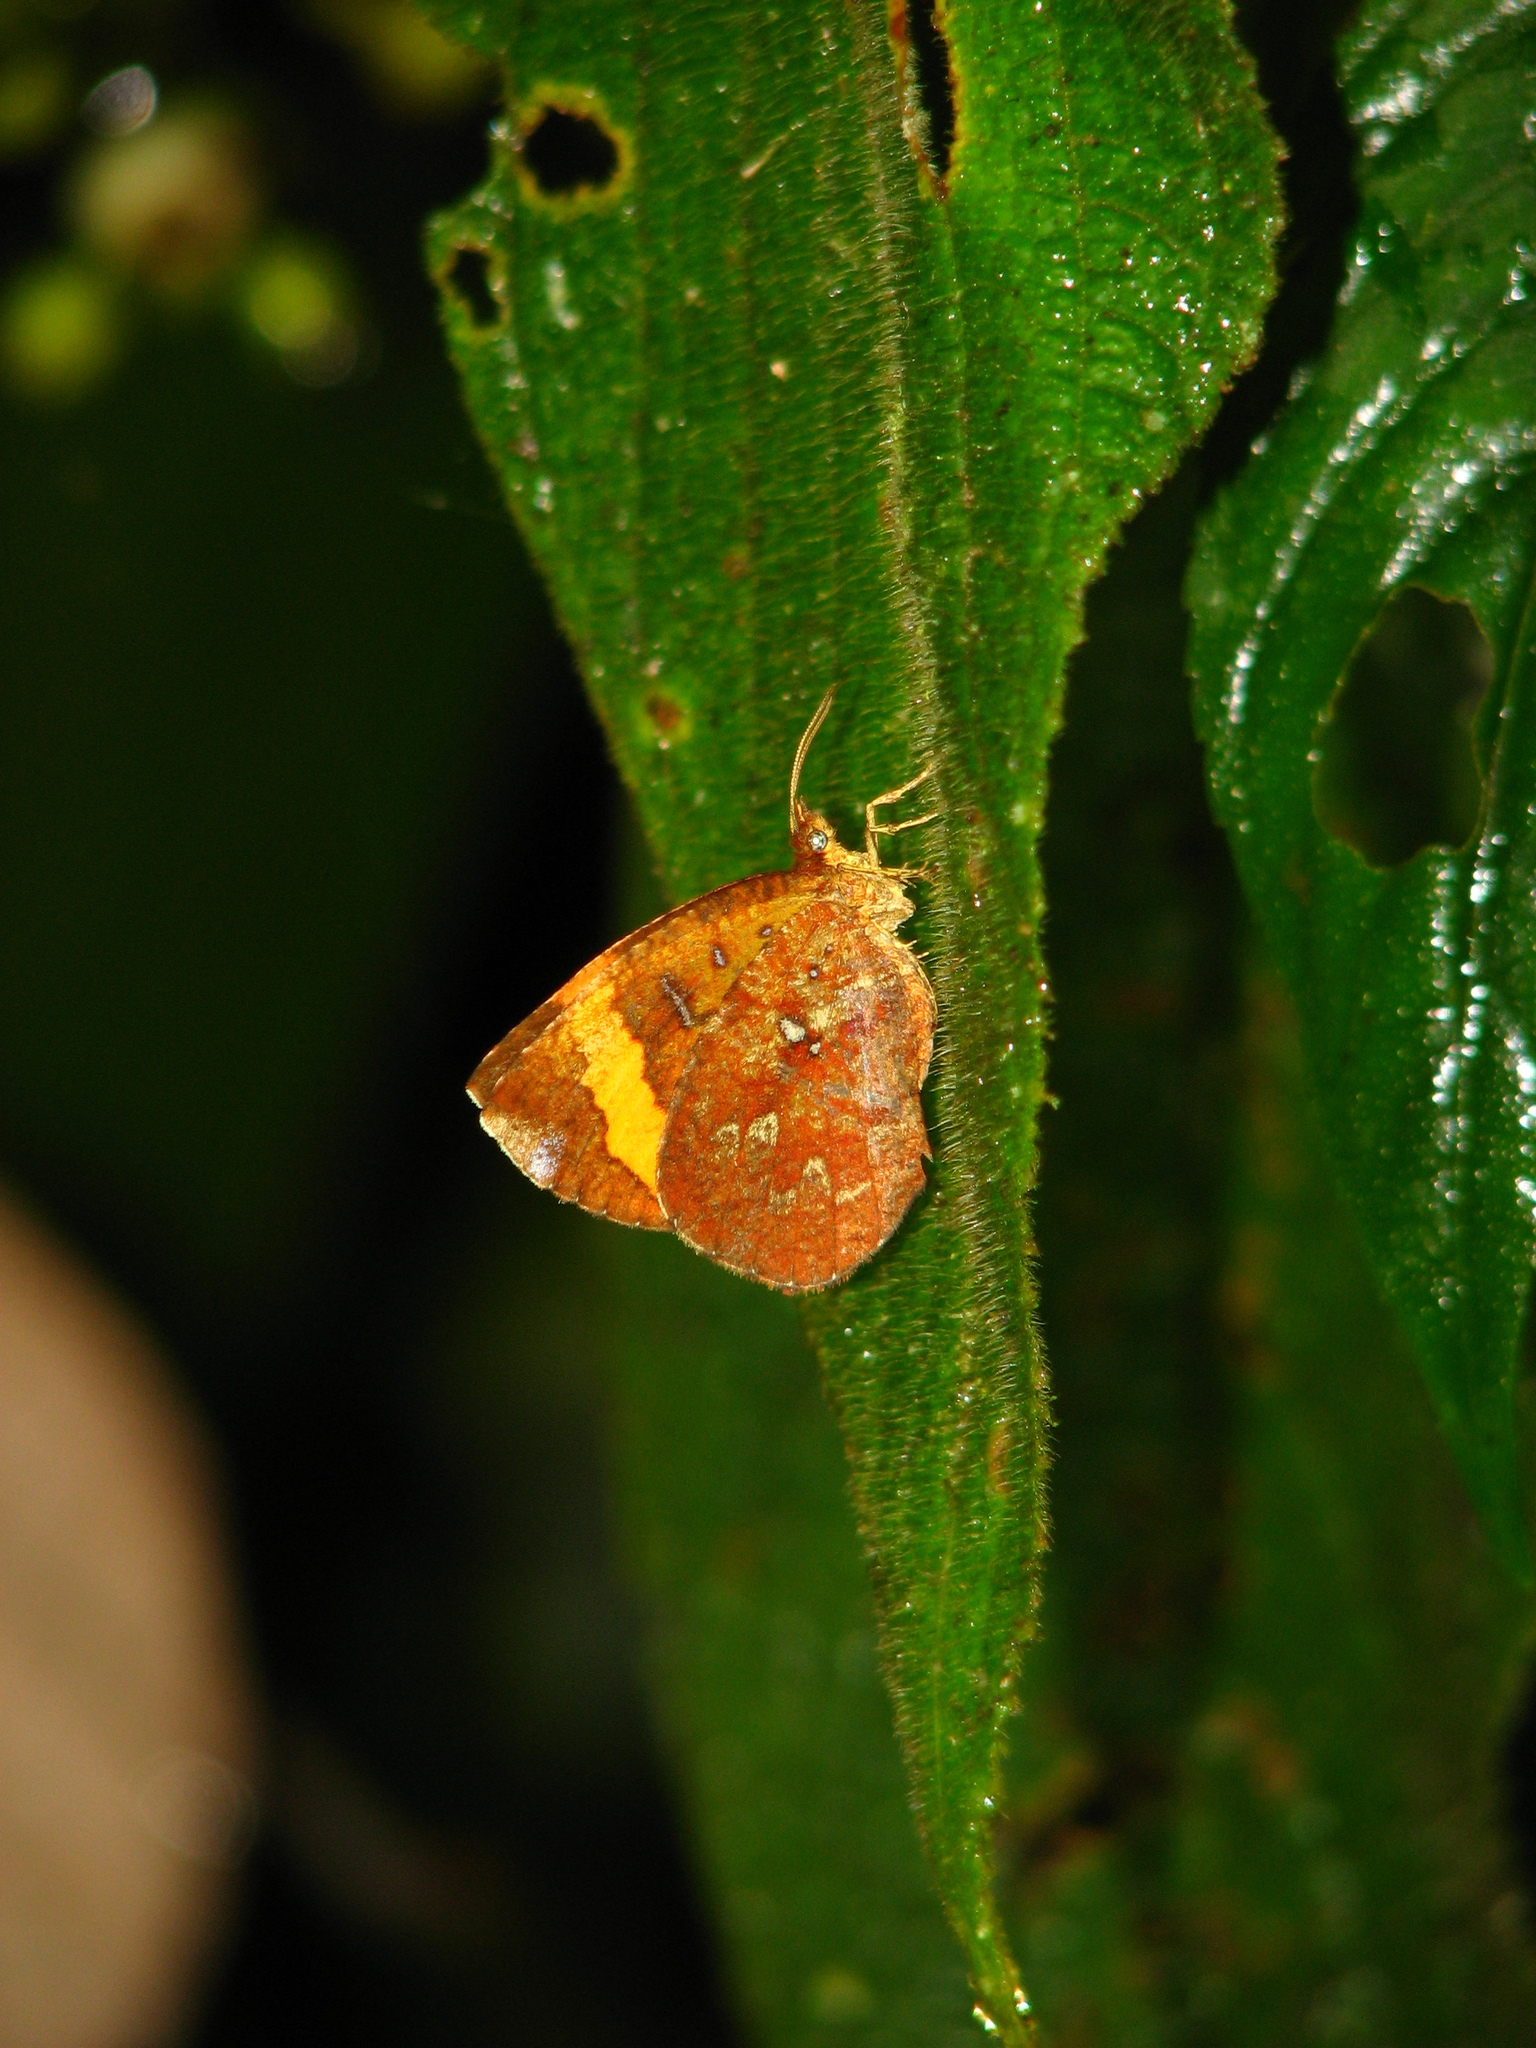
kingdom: Animalia
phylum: Arthropoda
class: Insecta
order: Lepidoptera
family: Callidulidae
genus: Petavia
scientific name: Petavia attenuata
